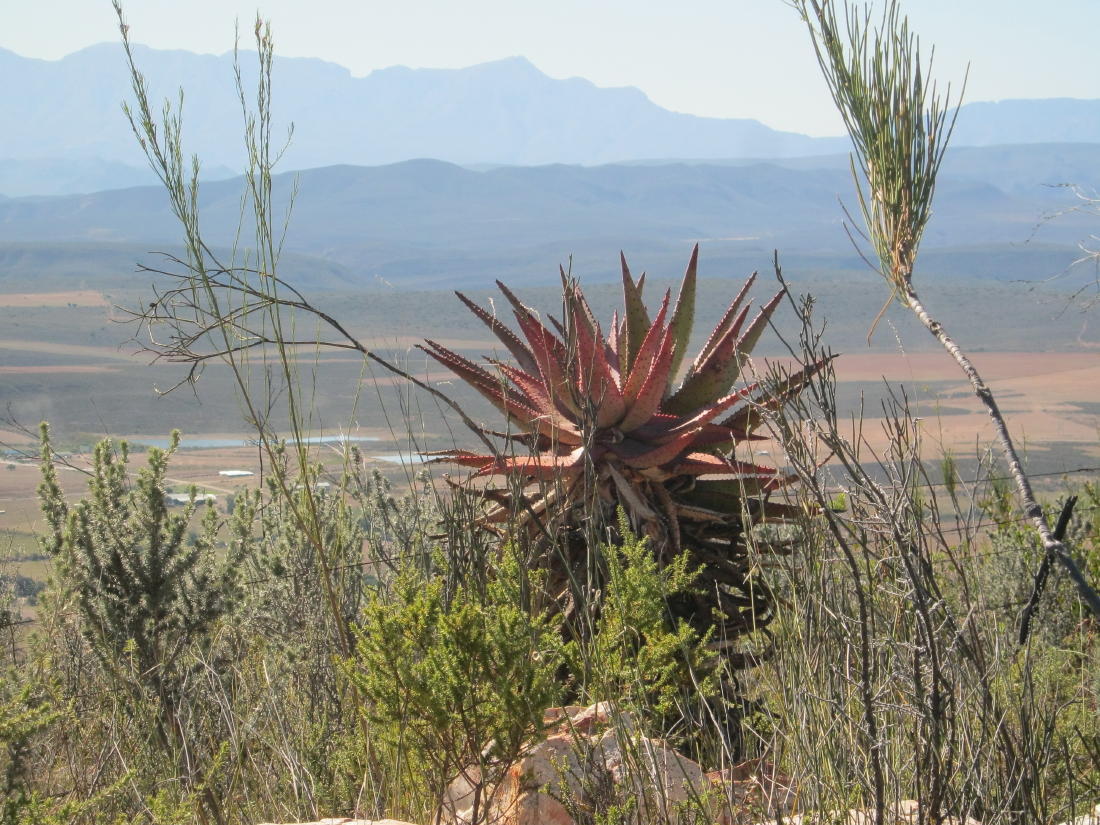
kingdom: Plantae
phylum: Tracheophyta
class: Liliopsida
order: Asparagales
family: Asphodelaceae
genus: Aloe
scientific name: Aloe ferox
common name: Bitter aloe
